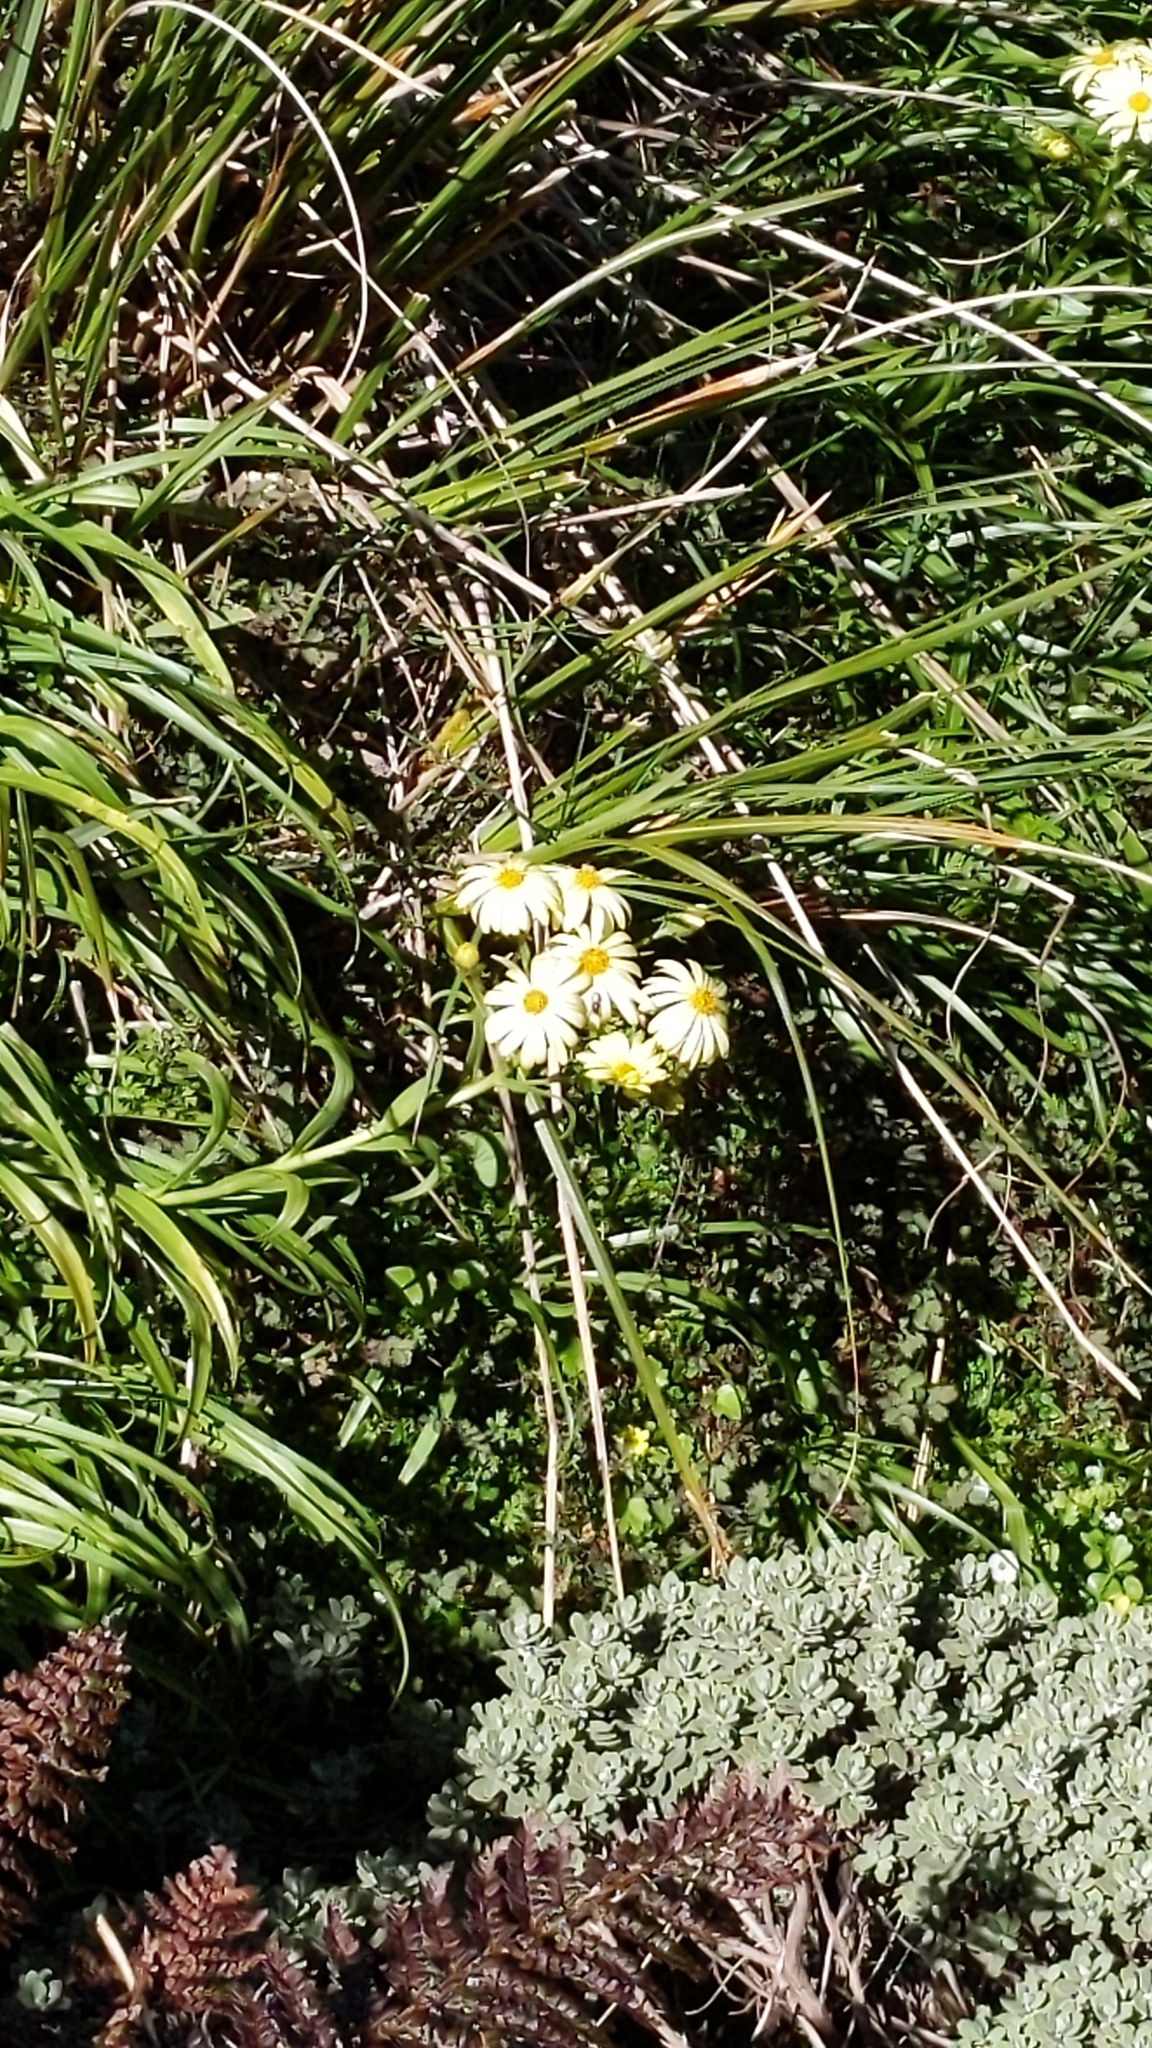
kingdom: Plantae
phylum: Tracheophyta
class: Magnoliopsida
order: Asterales
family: Asteraceae
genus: Dolichoglottis
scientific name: Dolichoglottis scorzoneroides
